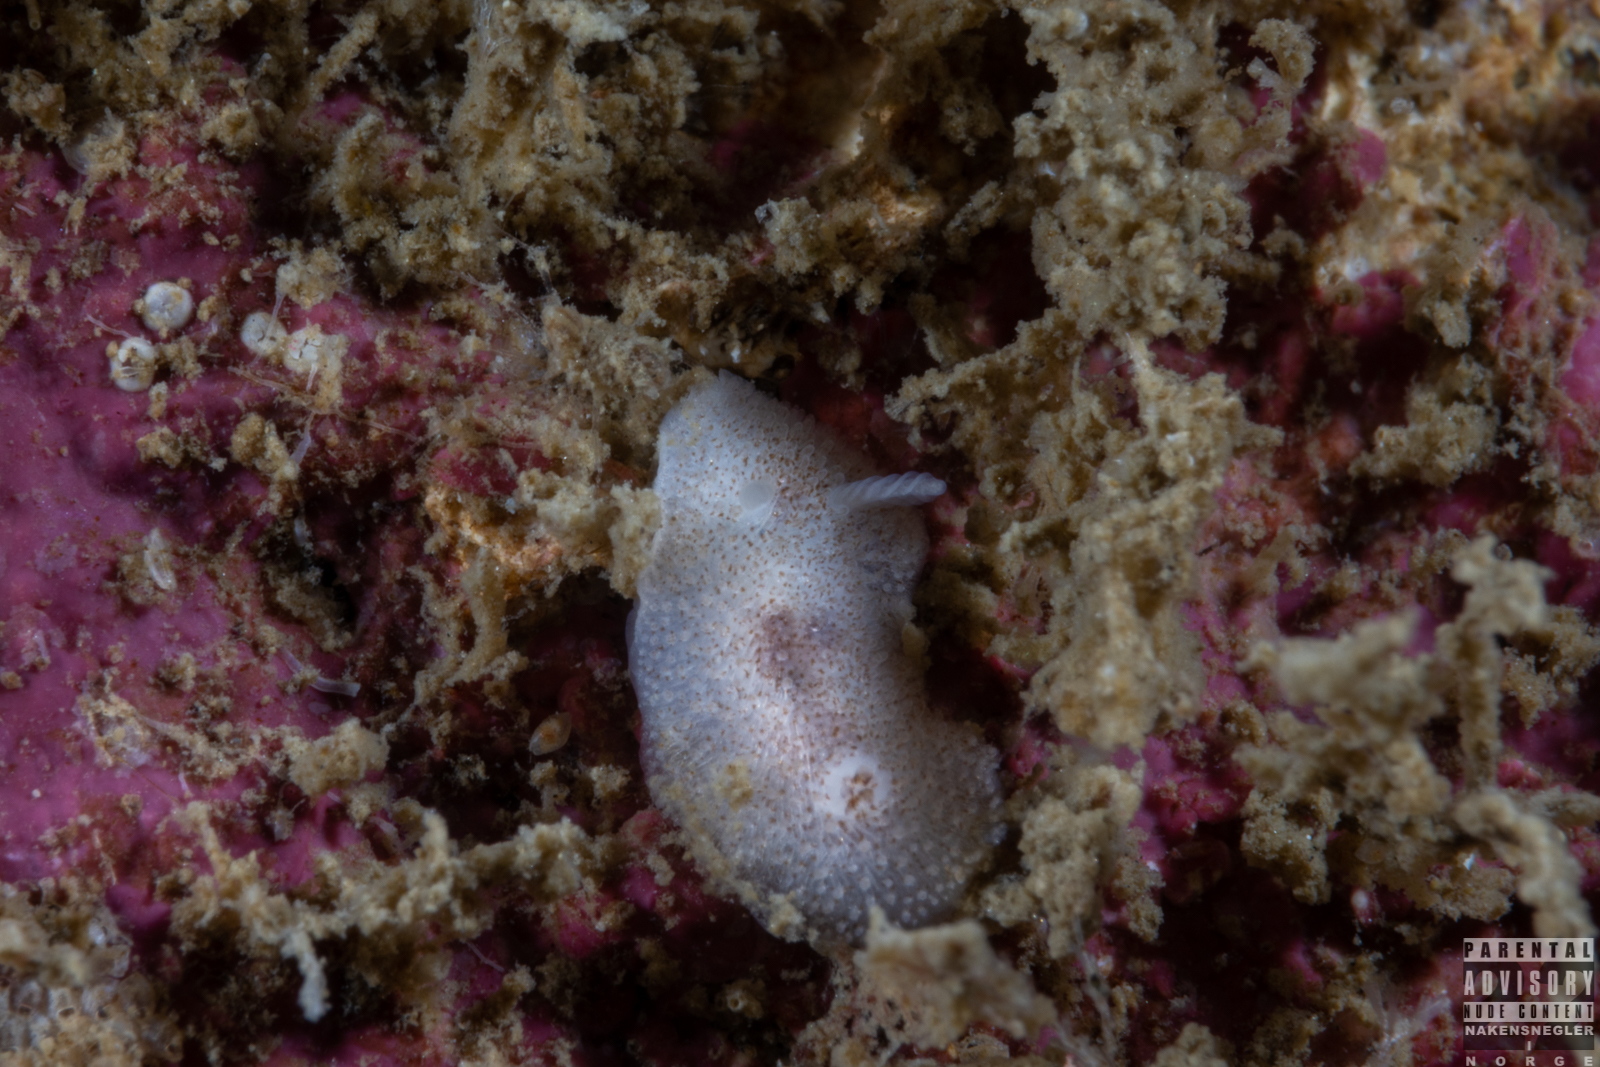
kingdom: Animalia
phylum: Mollusca
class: Gastropoda
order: Nudibranchia
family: Onchidorididae
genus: Atalodoris
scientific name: Atalodoris pusilla
